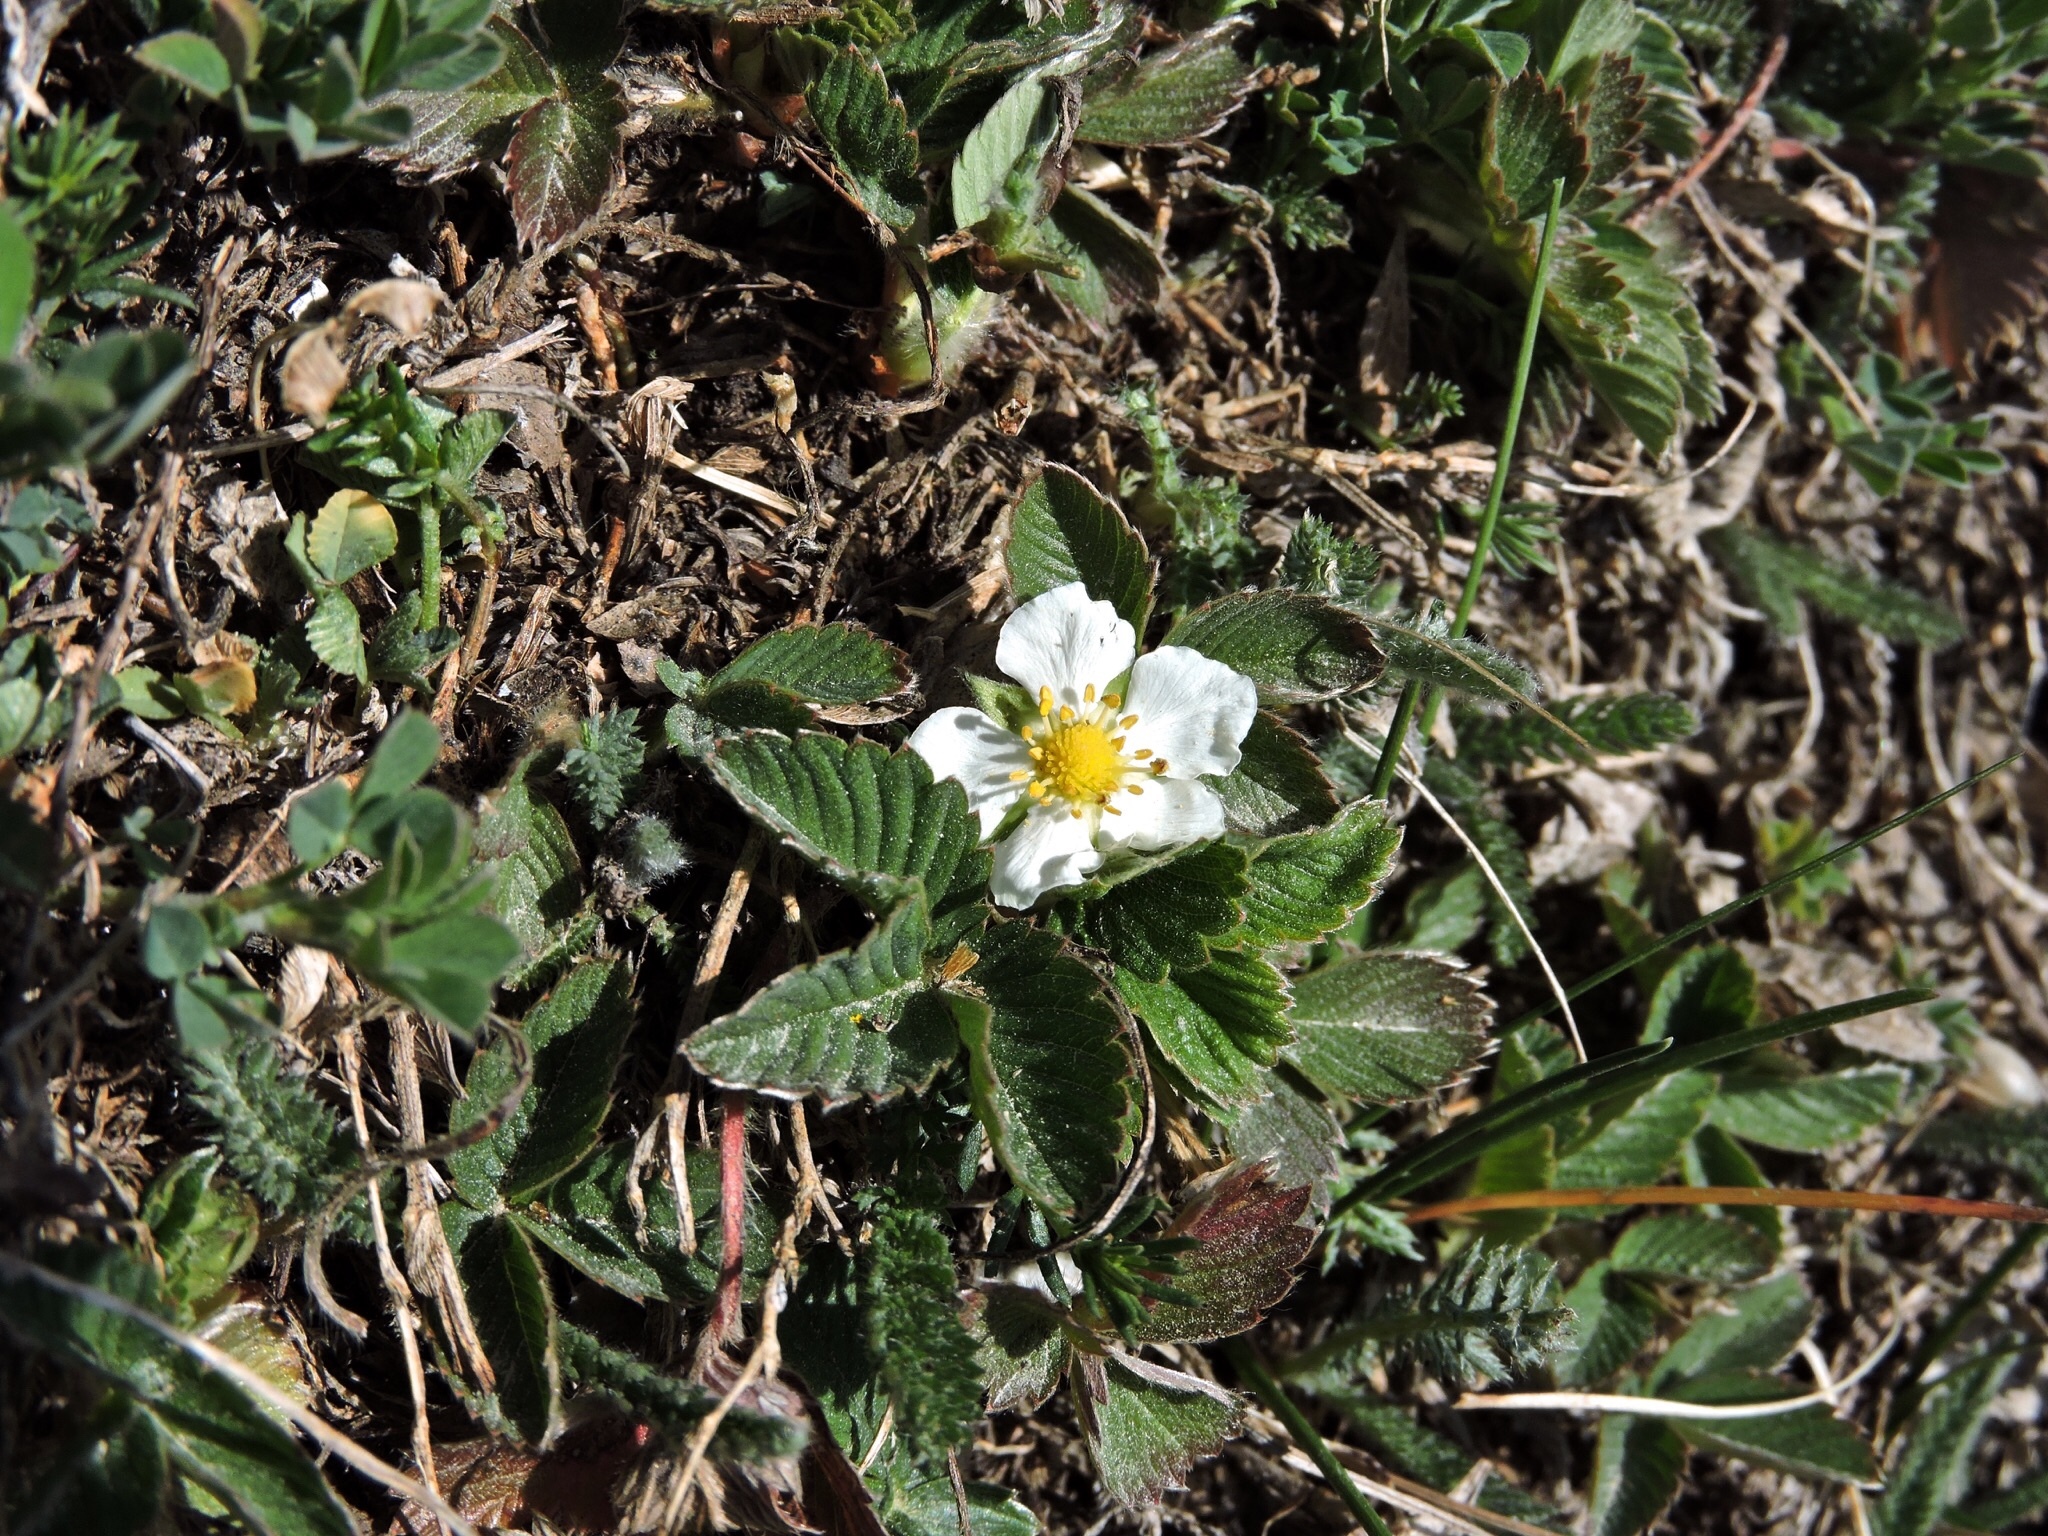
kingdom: Plantae
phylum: Tracheophyta
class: Magnoliopsida
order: Rosales
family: Rosaceae
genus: Fragaria
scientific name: Fragaria viridis
